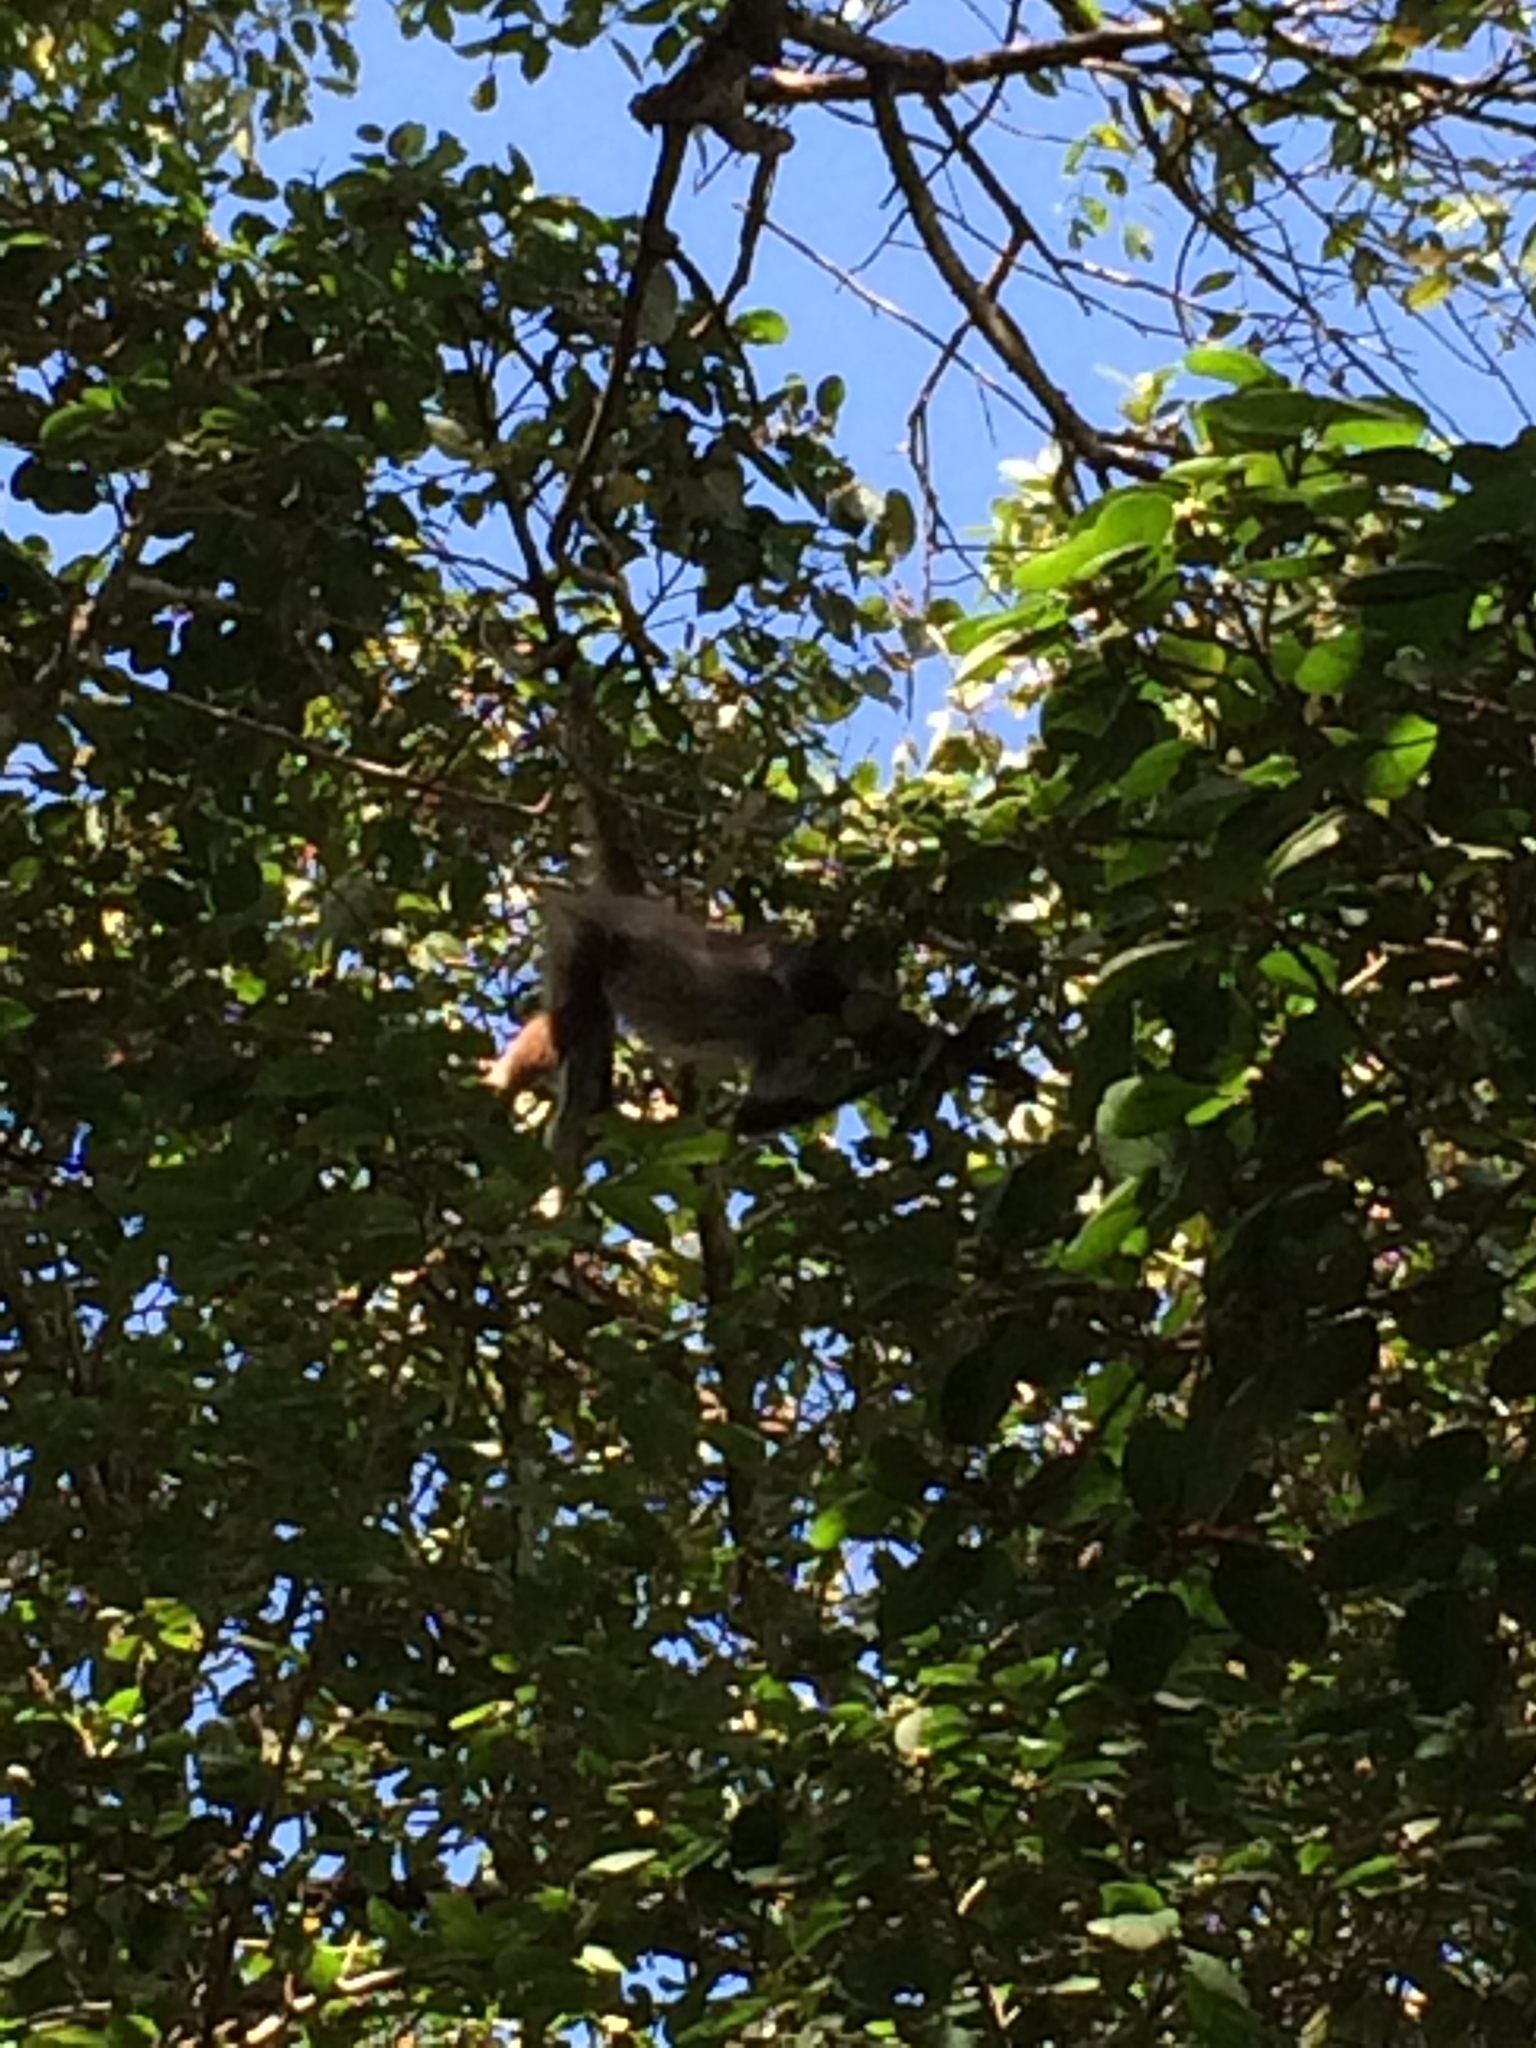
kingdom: Animalia
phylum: Chordata
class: Mammalia
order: Primates
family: Atelidae
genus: Ateles
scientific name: Ateles geoffroyi
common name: Black-handed spider monkey
